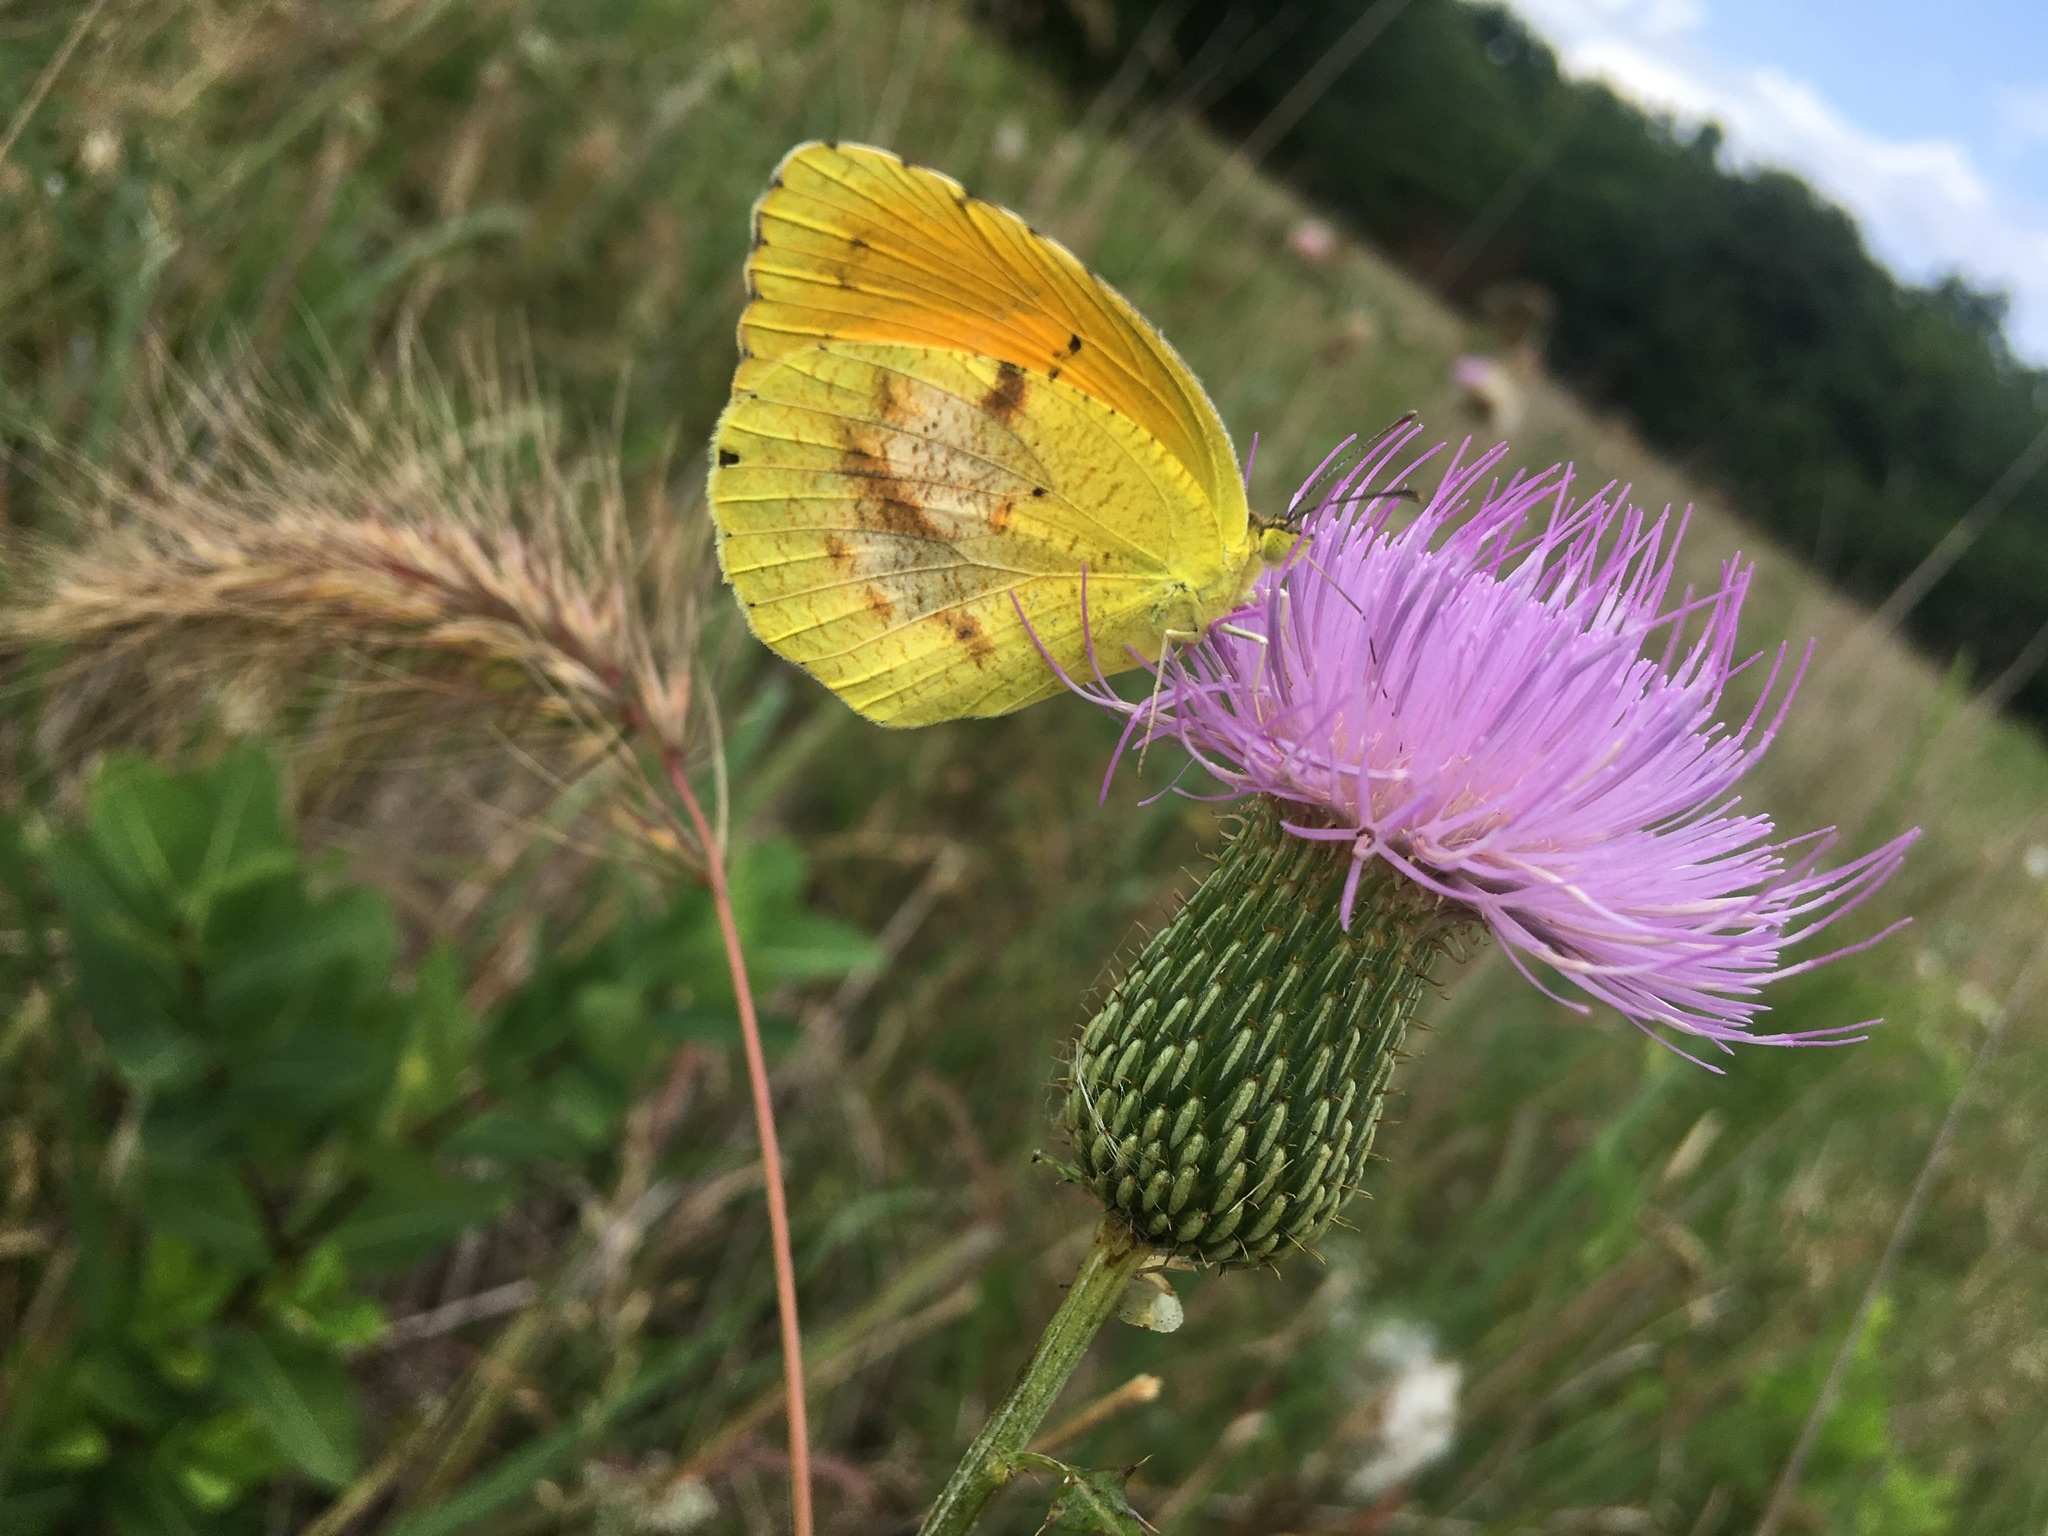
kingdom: Animalia
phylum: Arthropoda
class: Insecta
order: Lepidoptera
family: Pieridae
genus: Abaeis
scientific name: Abaeis nicippe
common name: Sleepy orange
